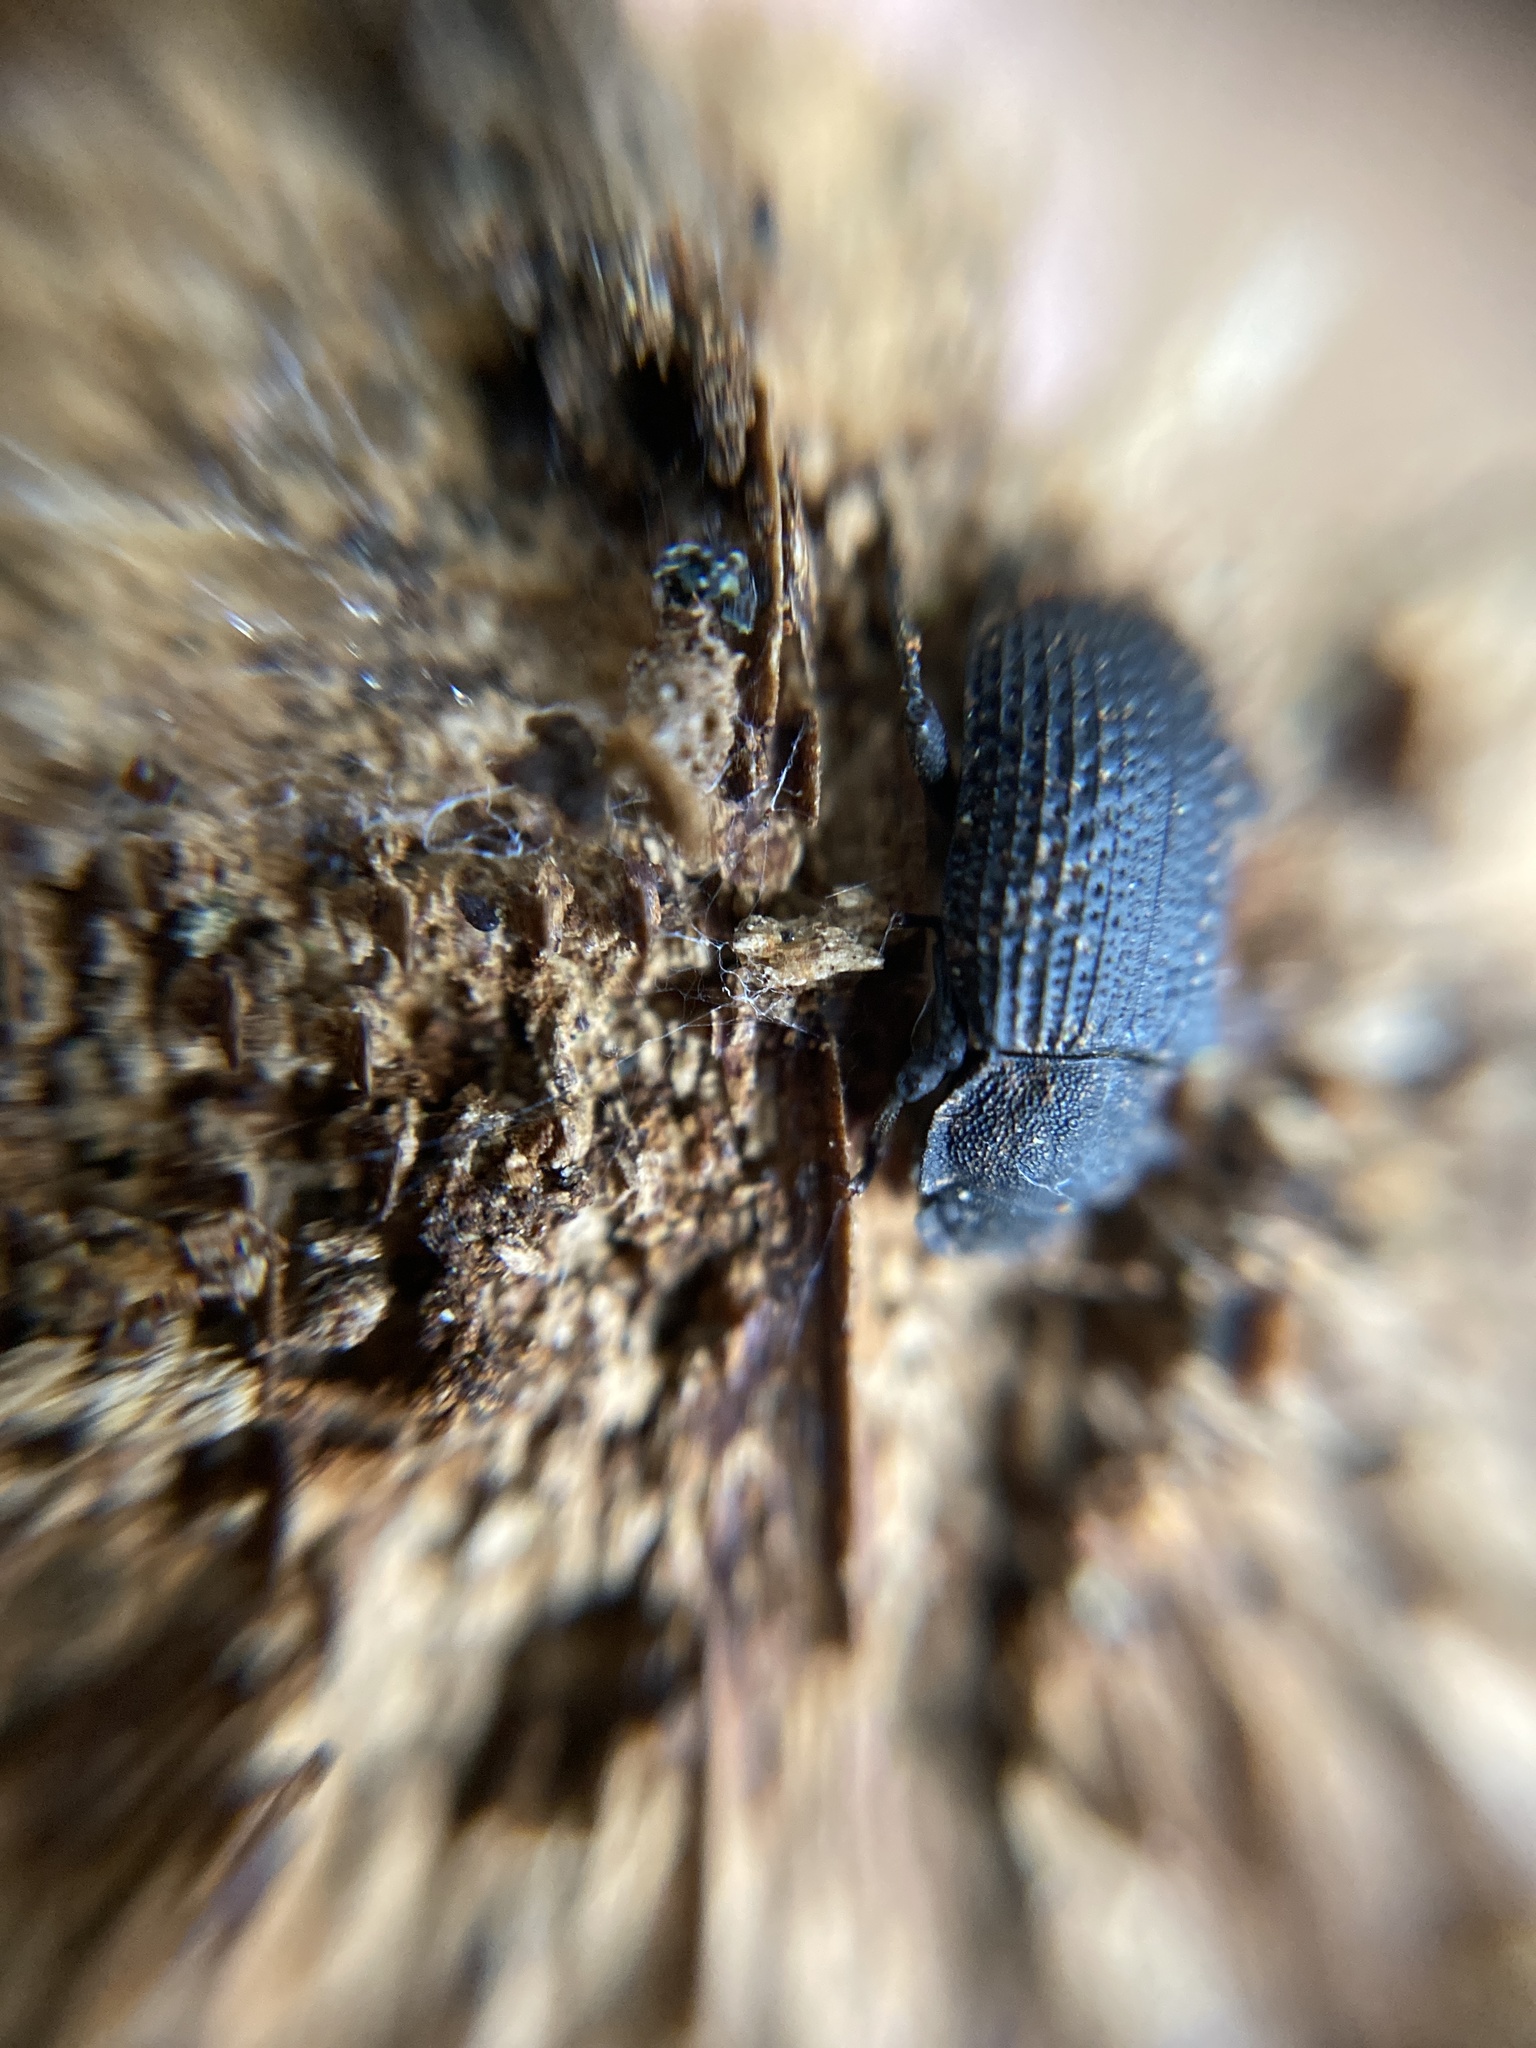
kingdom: Animalia
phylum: Arthropoda
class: Insecta
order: Coleoptera
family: Tenebrionidae
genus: Bolitophagus
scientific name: Bolitophagus reticulatus
